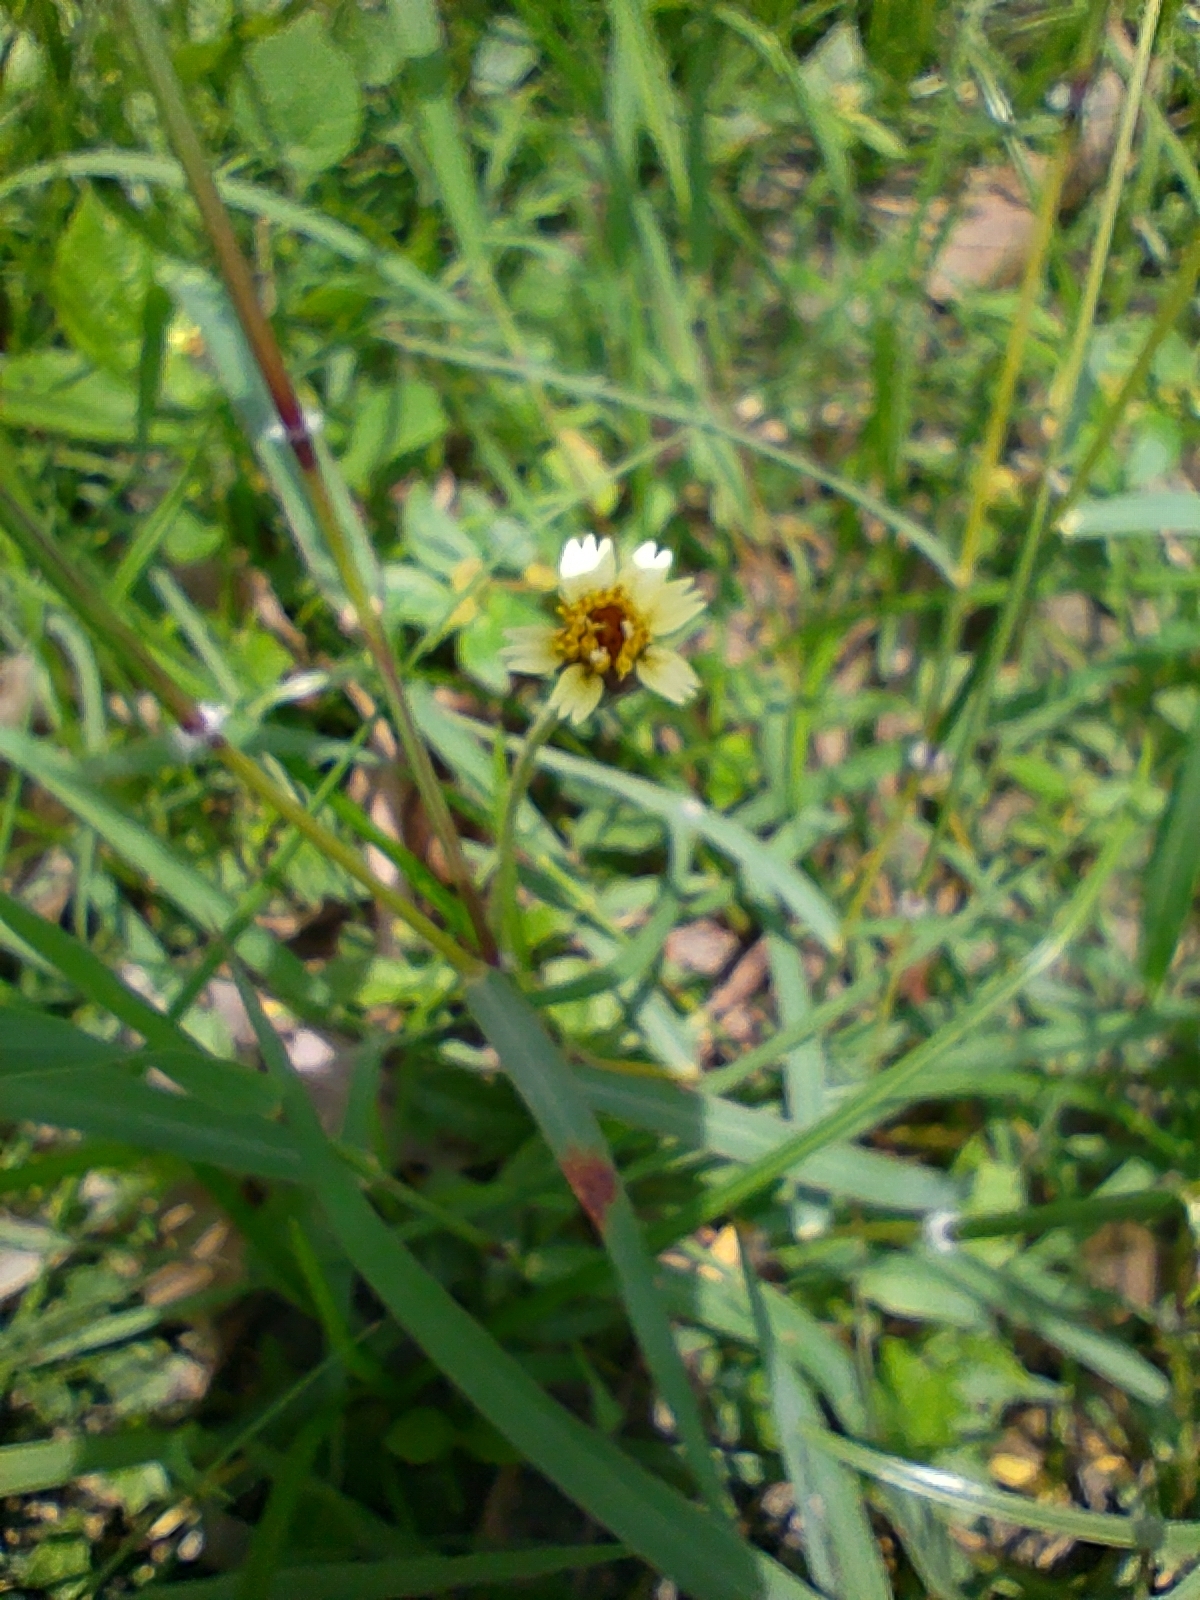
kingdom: Plantae
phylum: Tracheophyta
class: Magnoliopsida
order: Asterales
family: Asteraceae
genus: Tridax
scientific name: Tridax procumbens
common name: Coatbuttons
